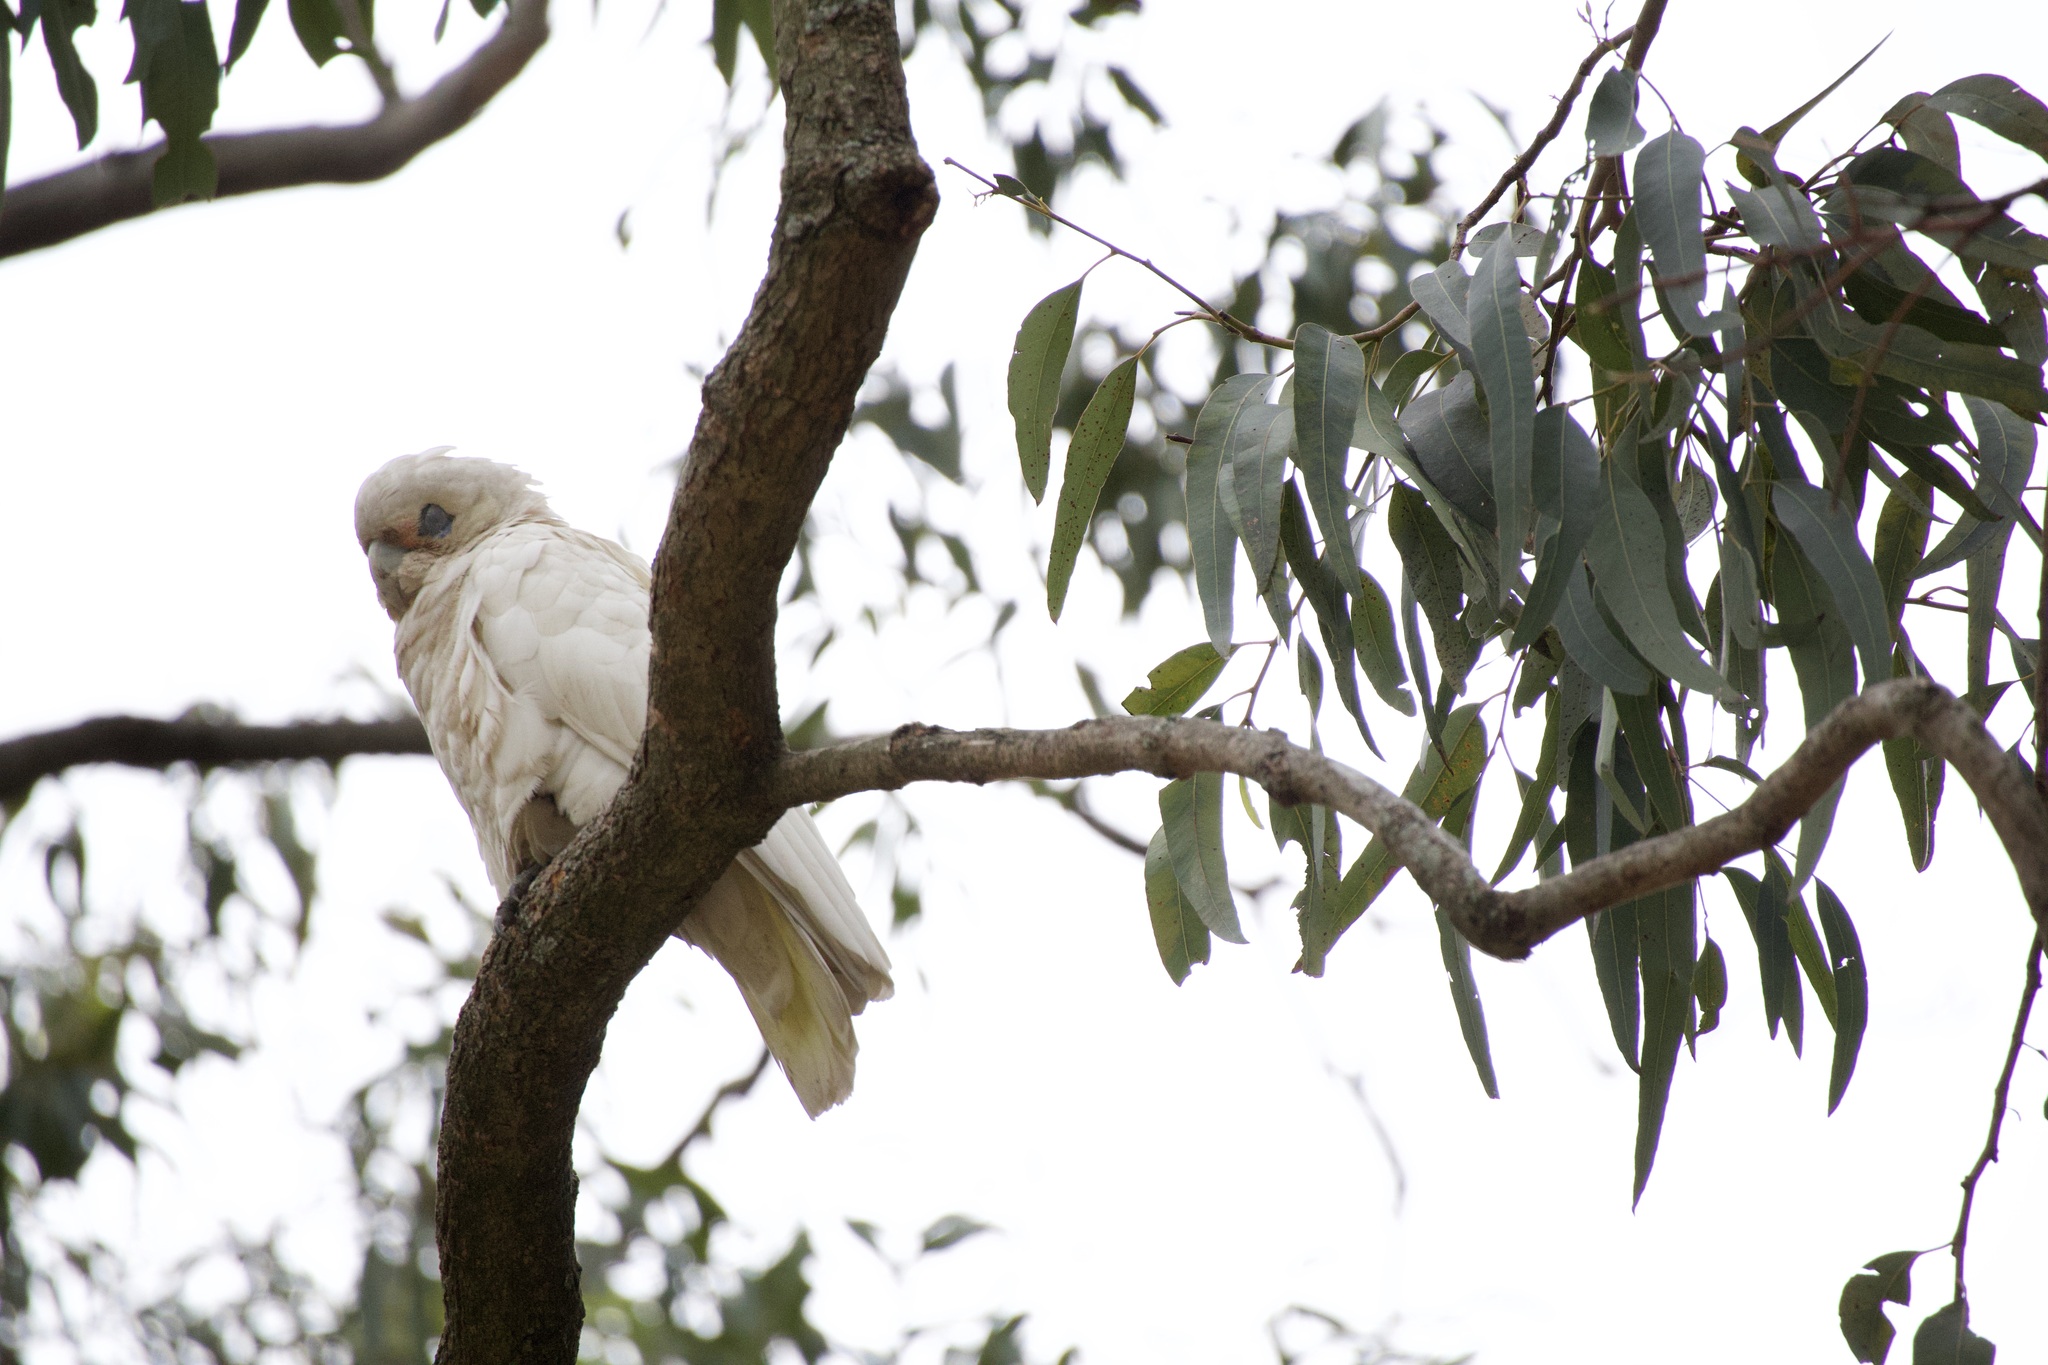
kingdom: Animalia
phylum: Chordata
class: Aves
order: Psittaciformes
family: Psittacidae
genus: Cacatua
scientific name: Cacatua sanguinea
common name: Little corella
